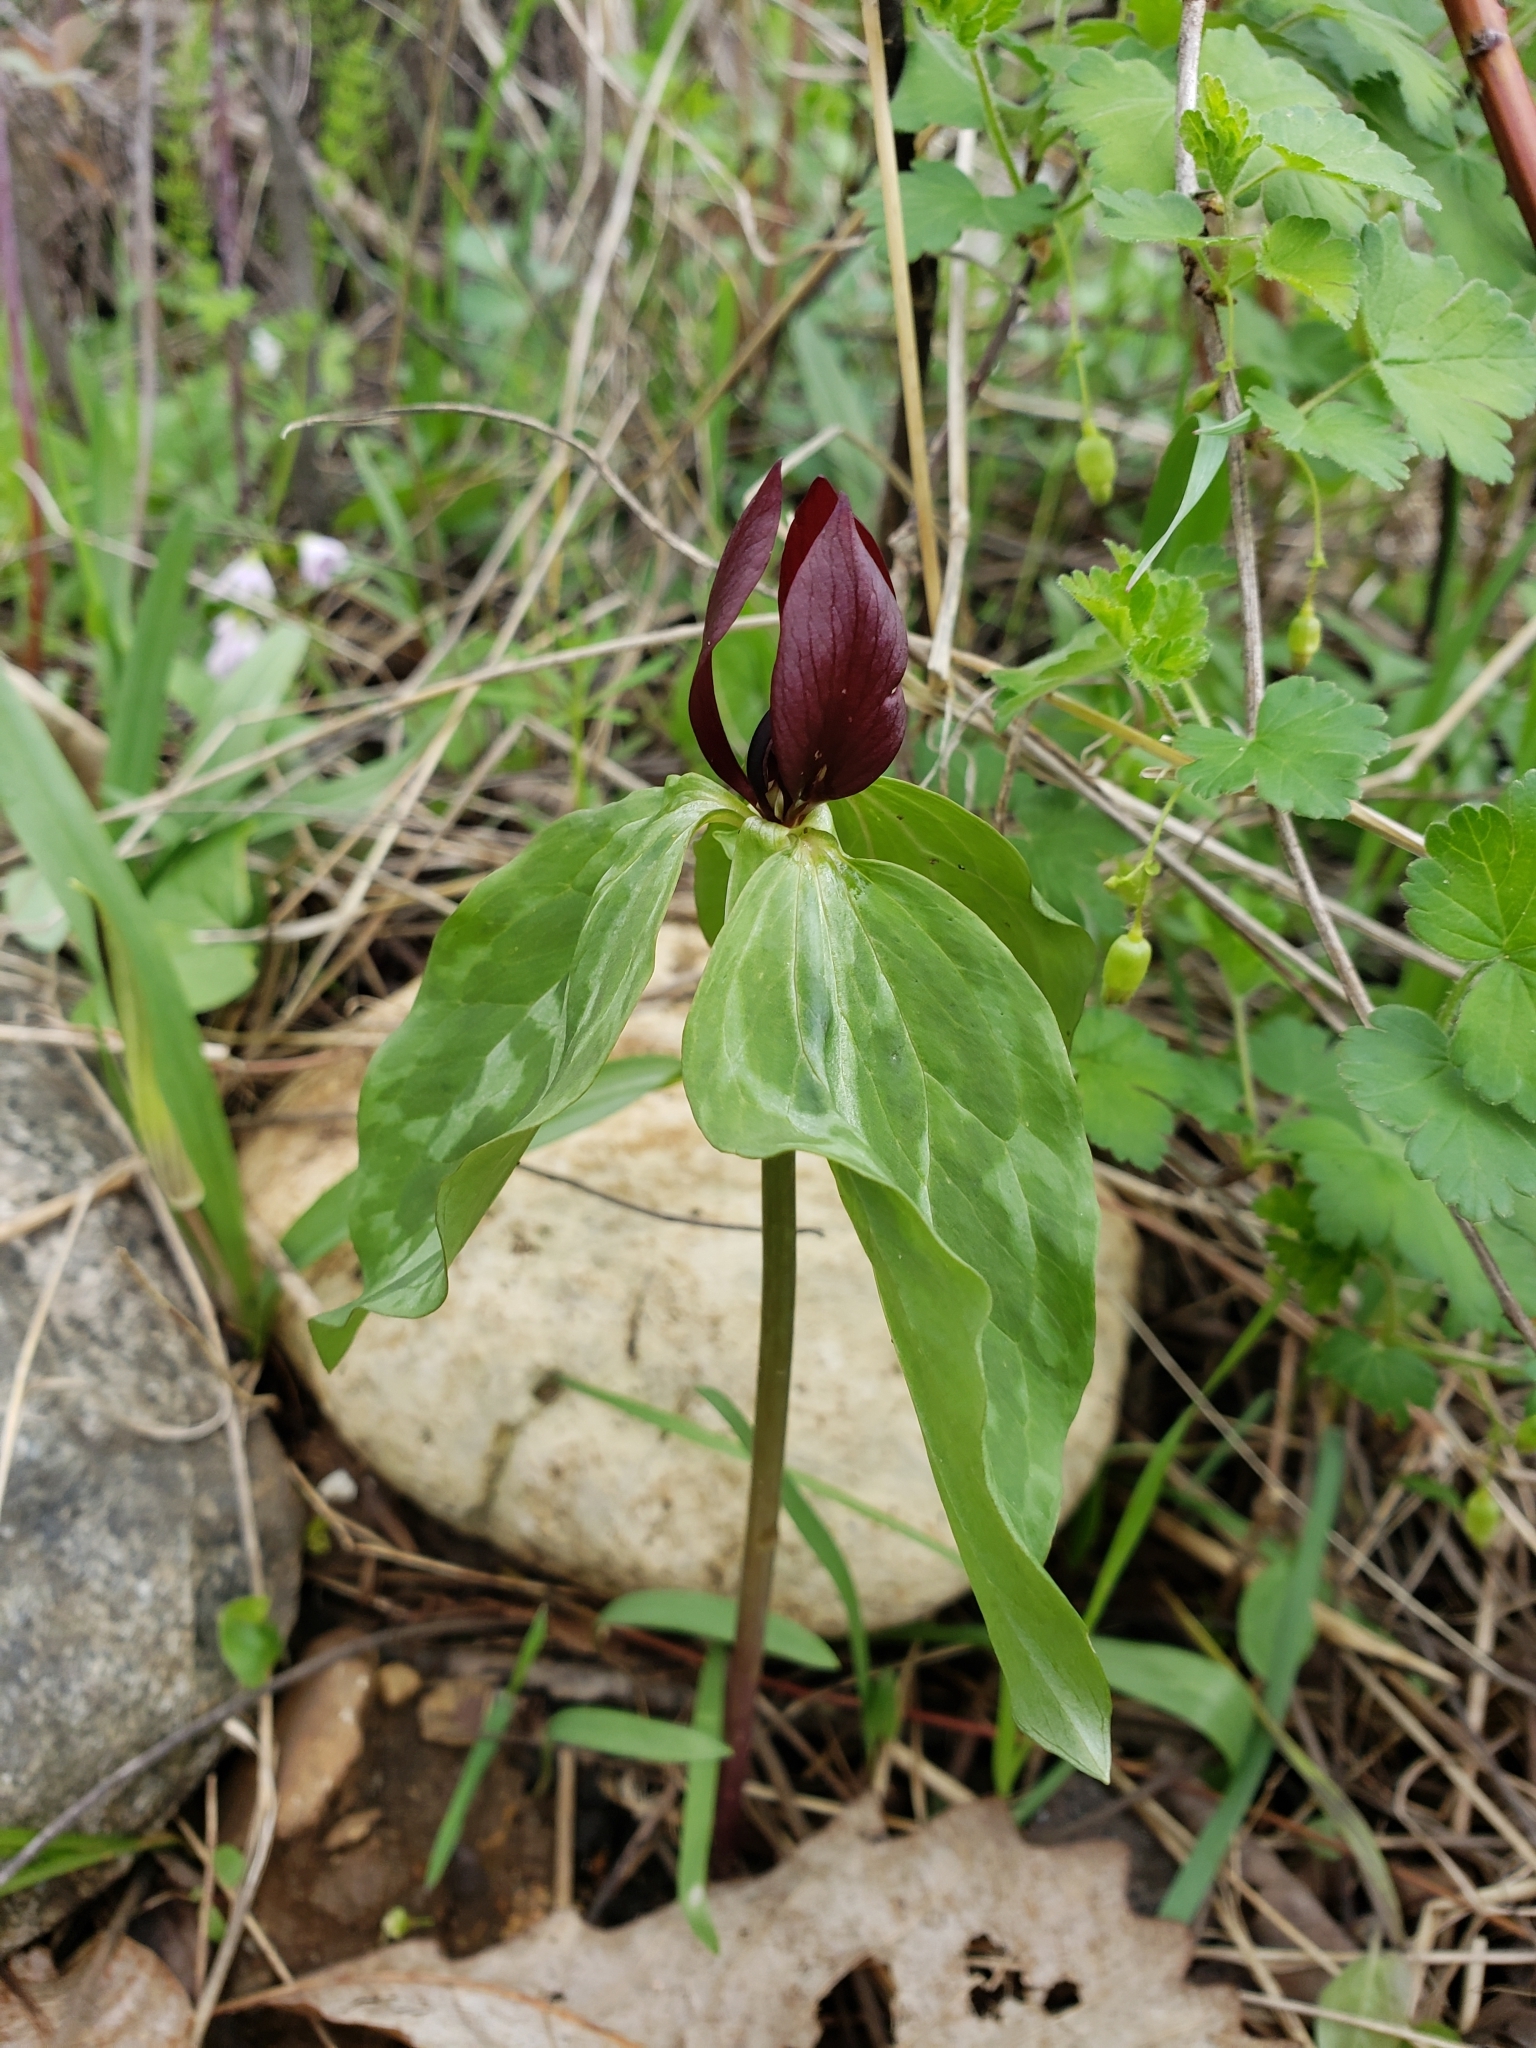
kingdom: Plantae
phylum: Tracheophyta
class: Liliopsida
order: Liliales
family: Melanthiaceae
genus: Trillium
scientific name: Trillium recurvatum
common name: Bloody butcher
